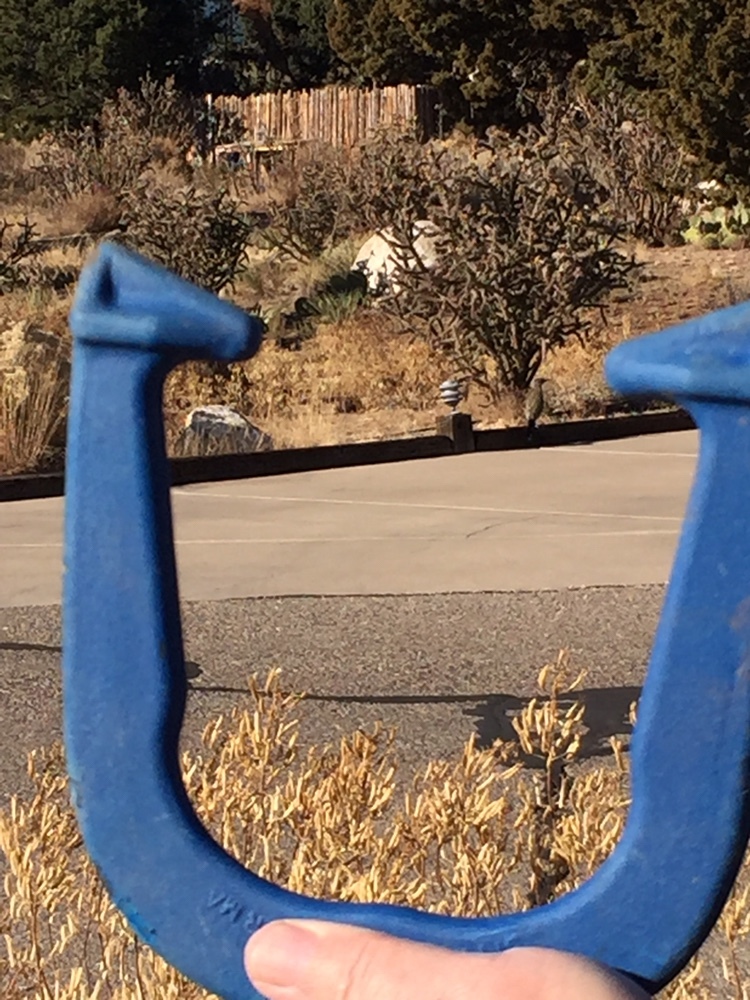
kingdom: Animalia
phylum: Chordata
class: Aves
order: Cuculiformes
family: Cuculidae
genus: Geococcyx
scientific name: Geococcyx californianus
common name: Greater roadrunner
